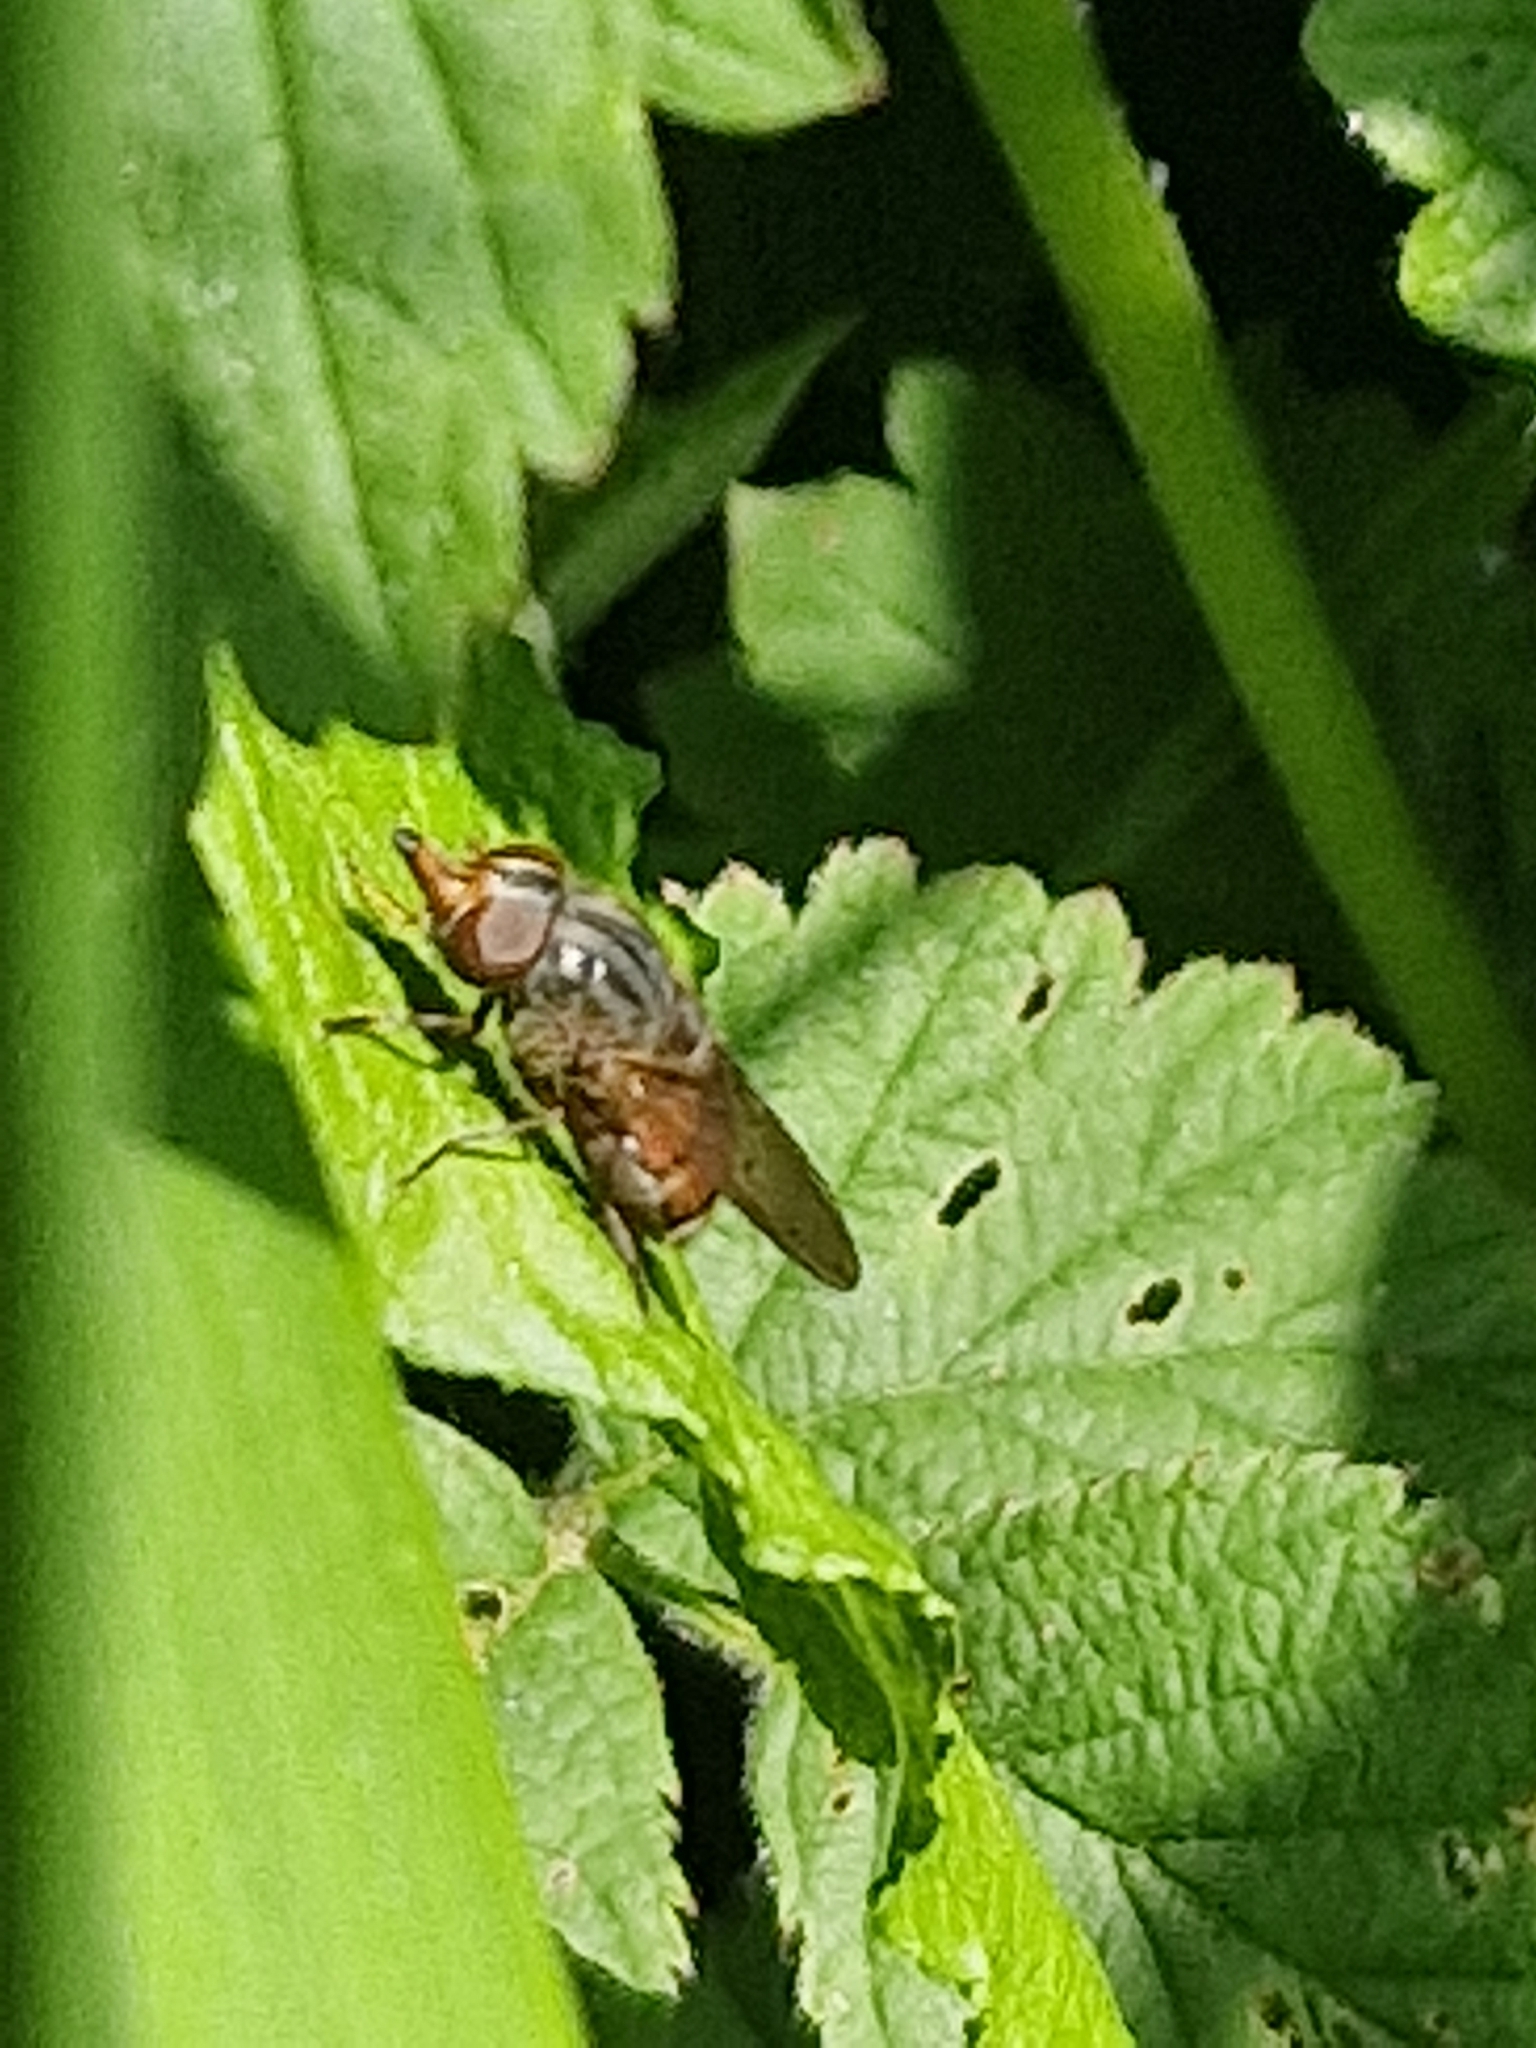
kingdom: Animalia
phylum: Arthropoda
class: Insecta
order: Diptera
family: Syrphidae
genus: Rhingia
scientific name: Rhingia campestris
